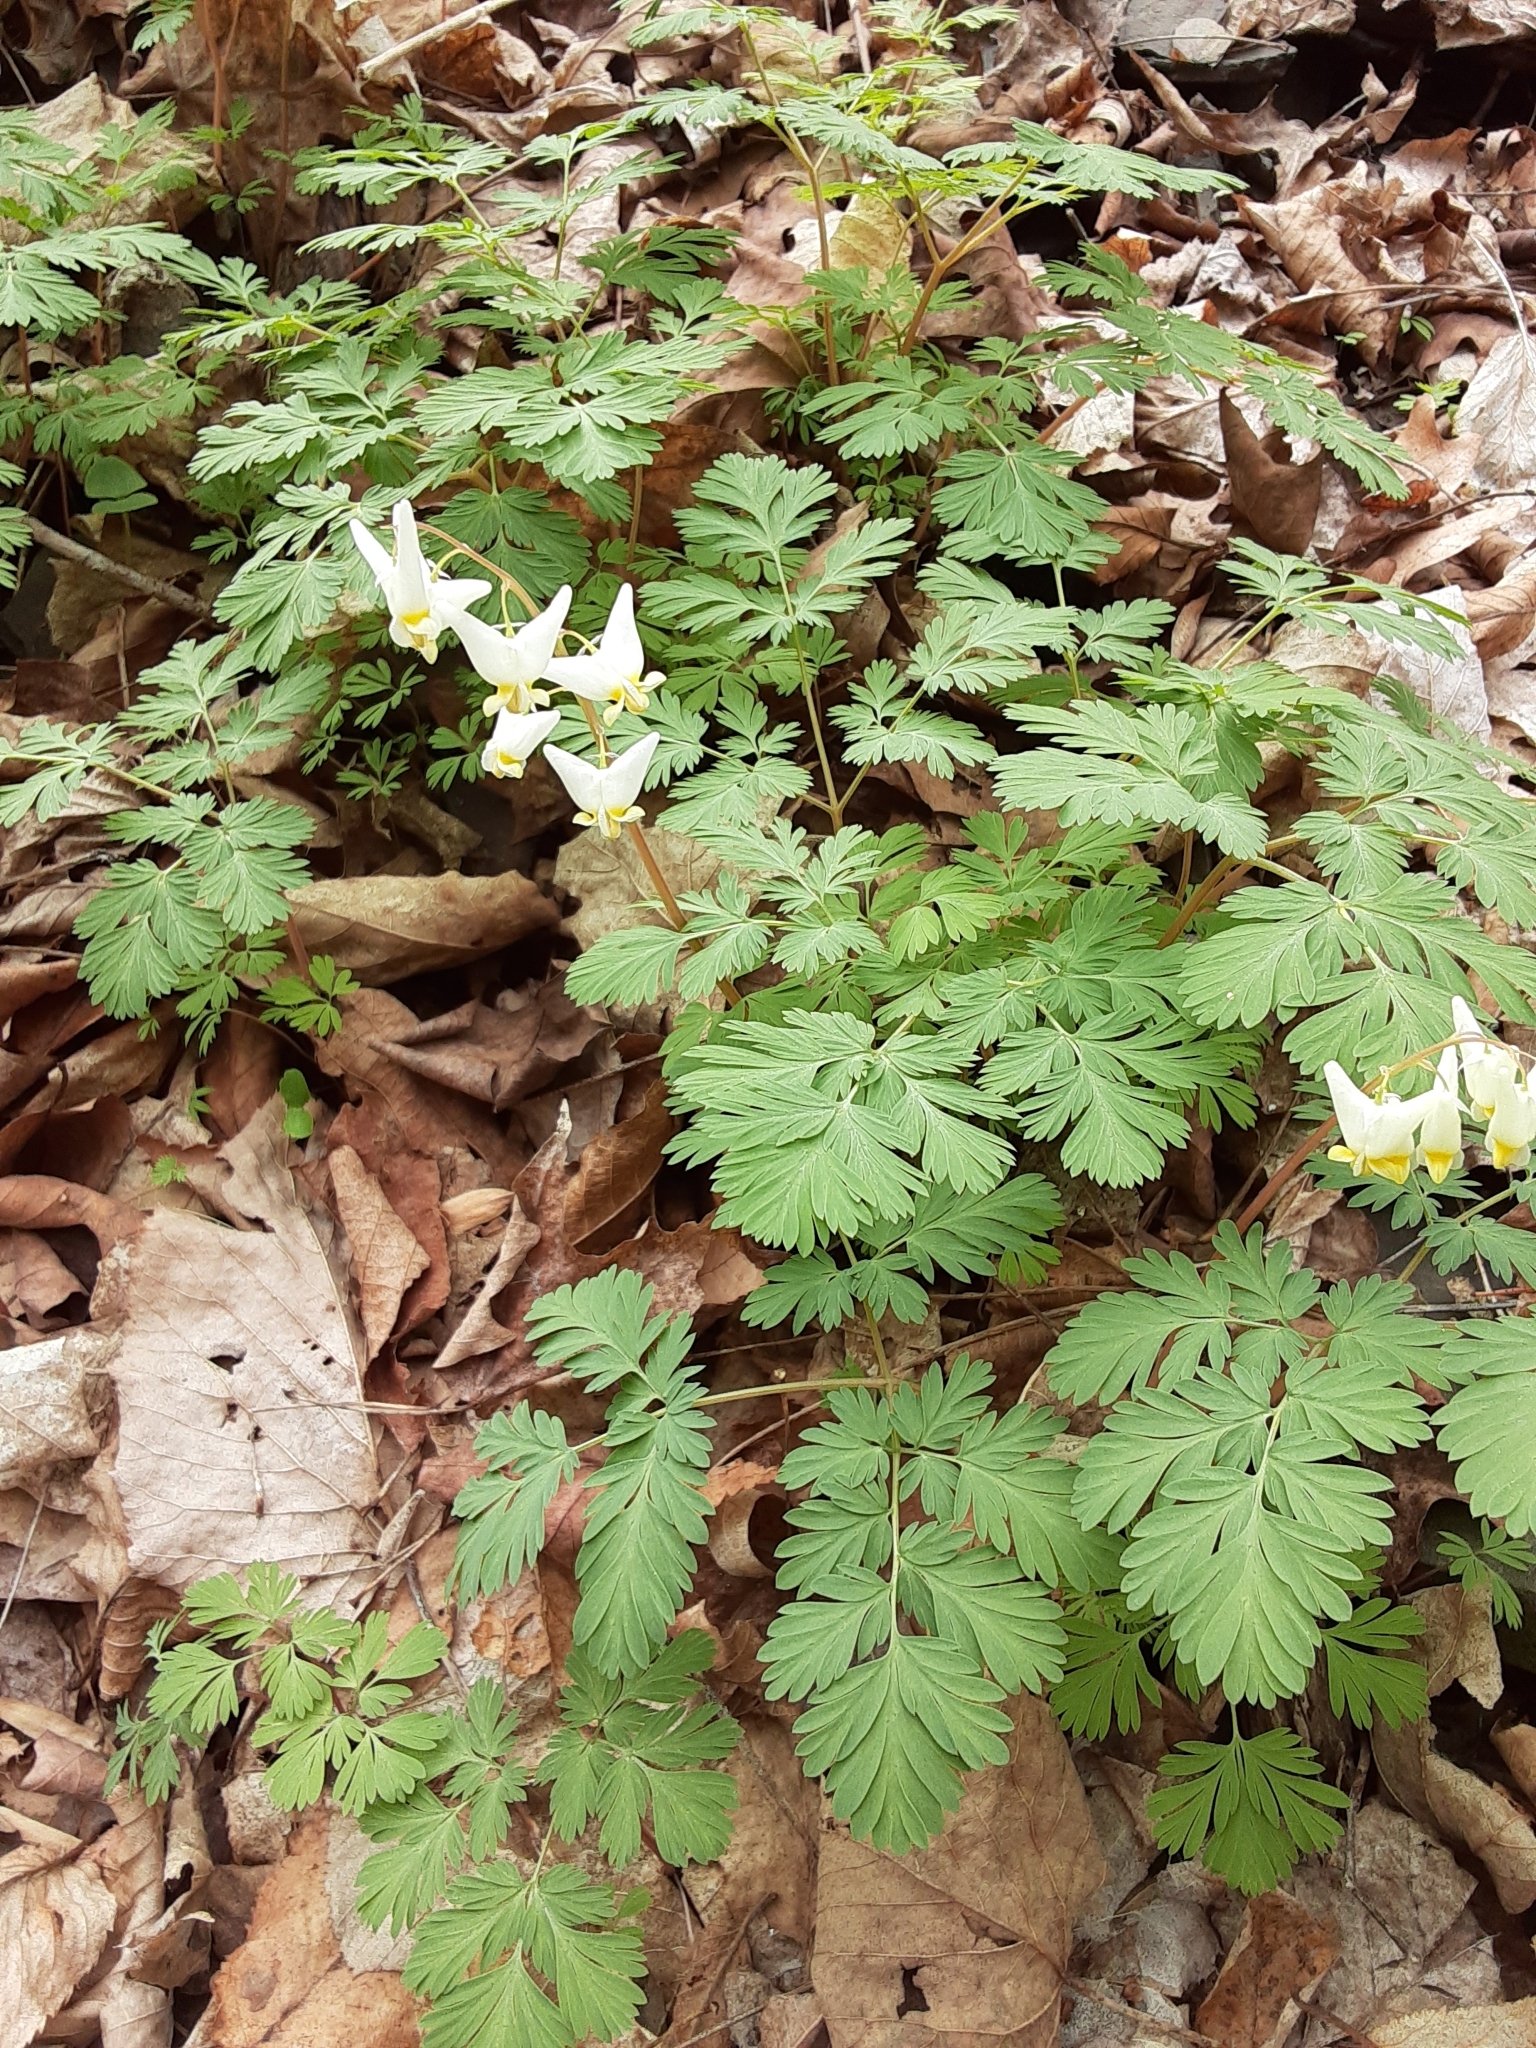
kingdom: Plantae
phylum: Tracheophyta
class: Magnoliopsida
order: Ranunculales
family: Papaveraceae
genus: Dicentra
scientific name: Dicentra cucullaria
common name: Dutchman's breeches
